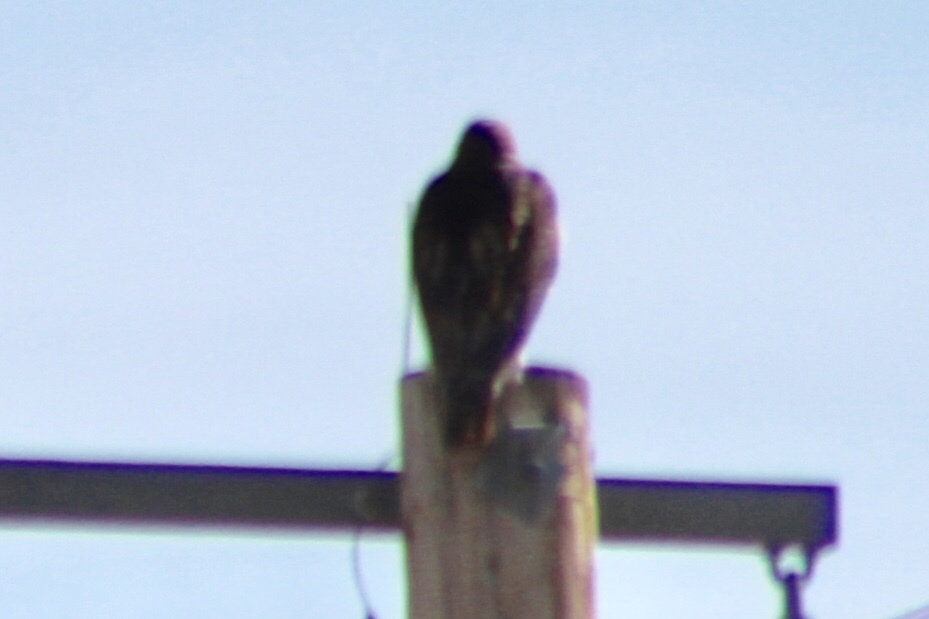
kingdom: Animalia
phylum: Chordata
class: Aves
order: Accipitriformes
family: Accipitridae
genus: Buteo
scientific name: Buteo jamaicensis
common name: Red-tailed hawk
